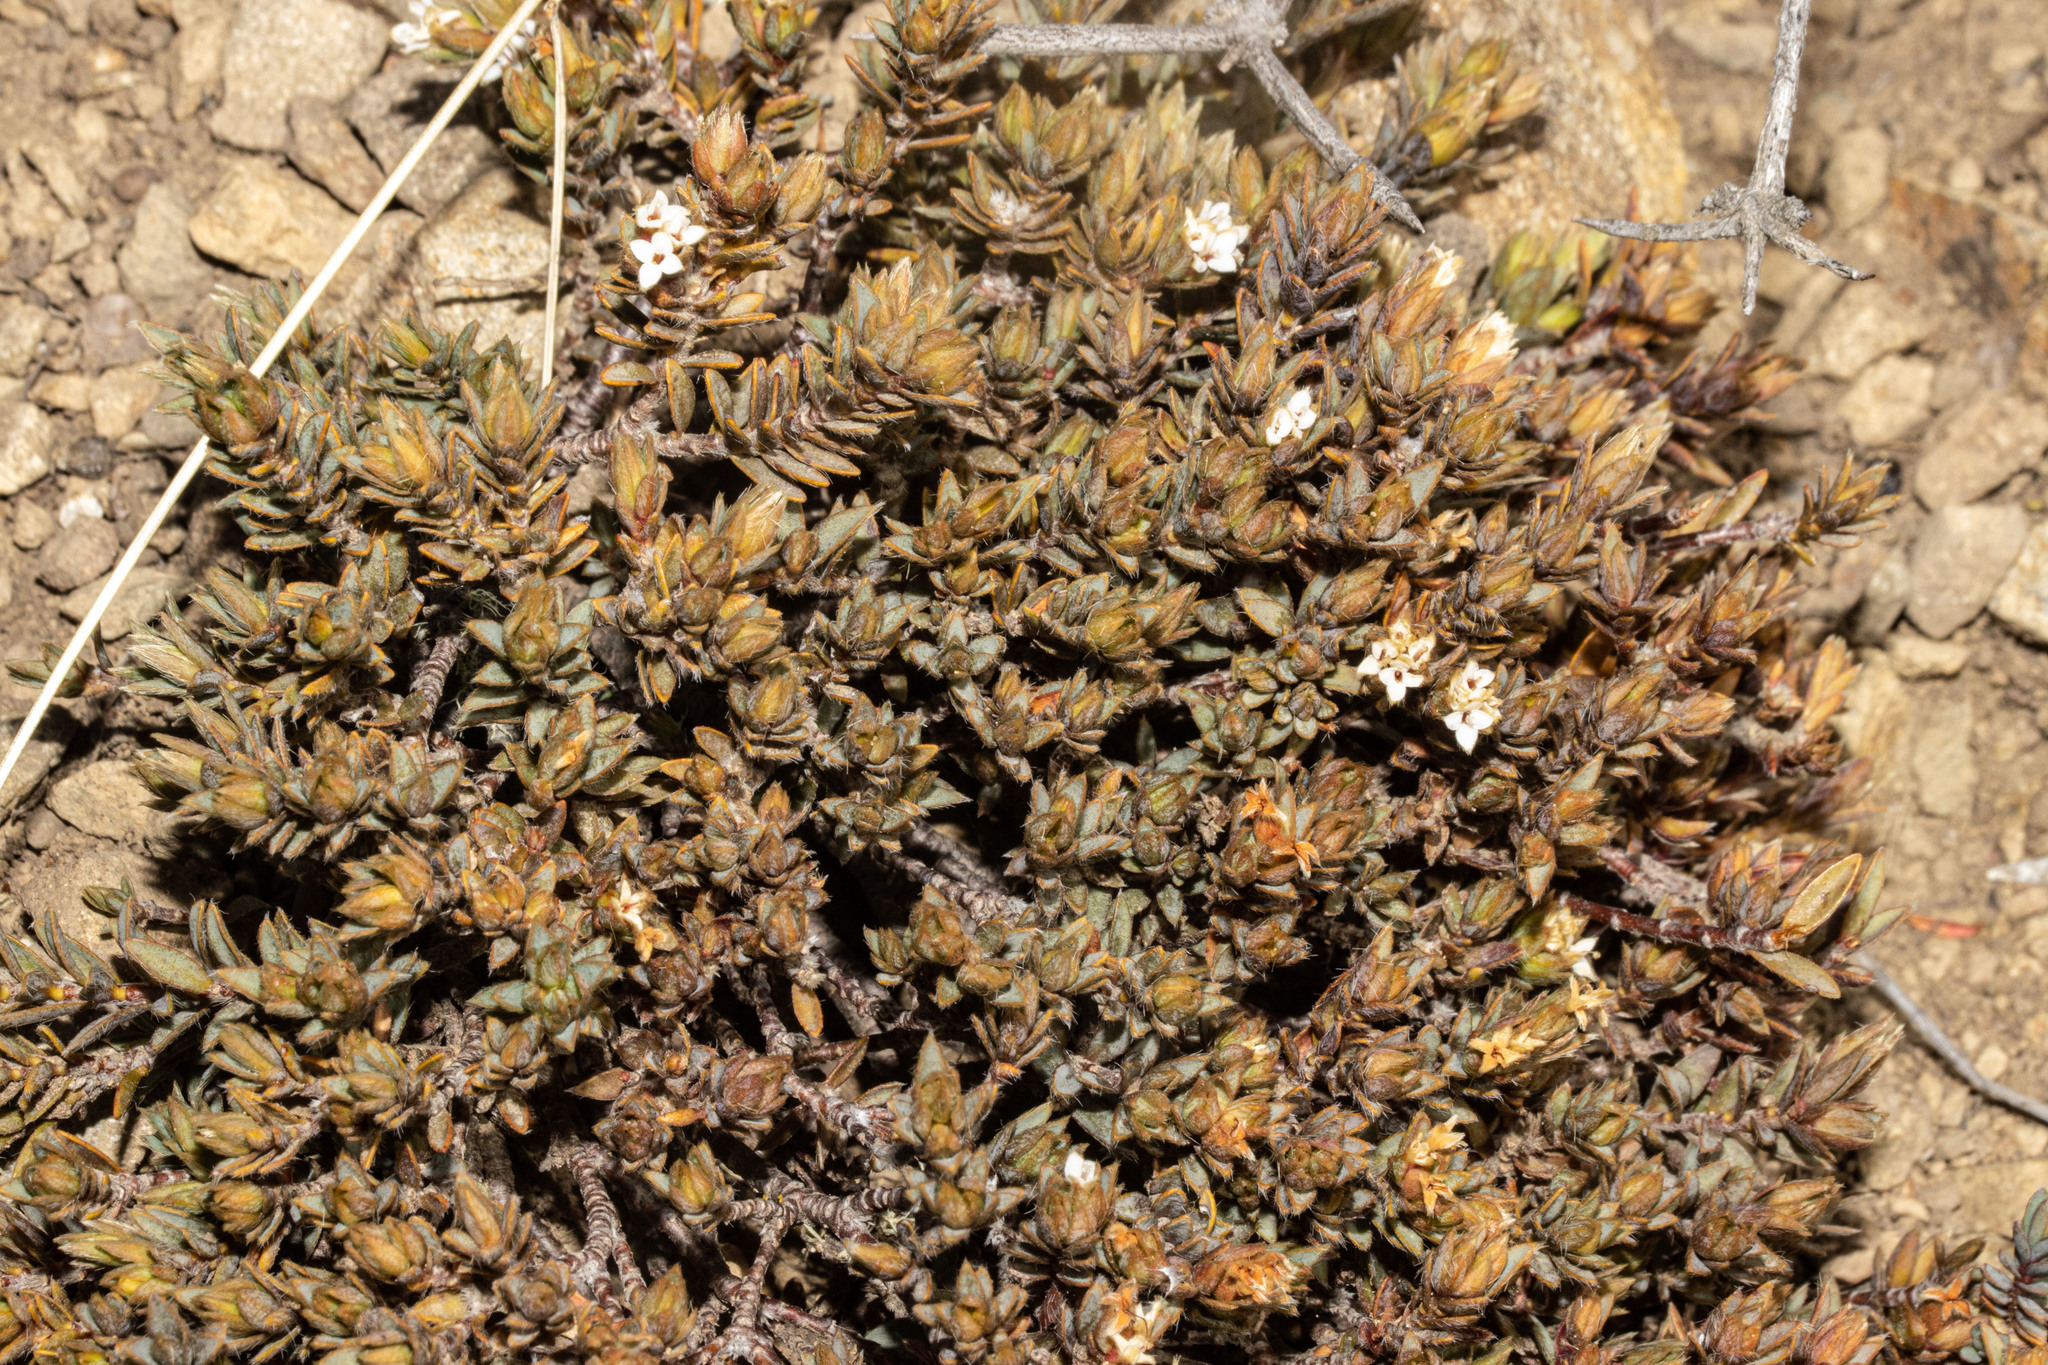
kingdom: Plantae
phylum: Tracheophyta
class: Magnoliopsida
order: Malvales
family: Thymelaeaceae
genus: Pimelea
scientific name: Pimelea oreophila
